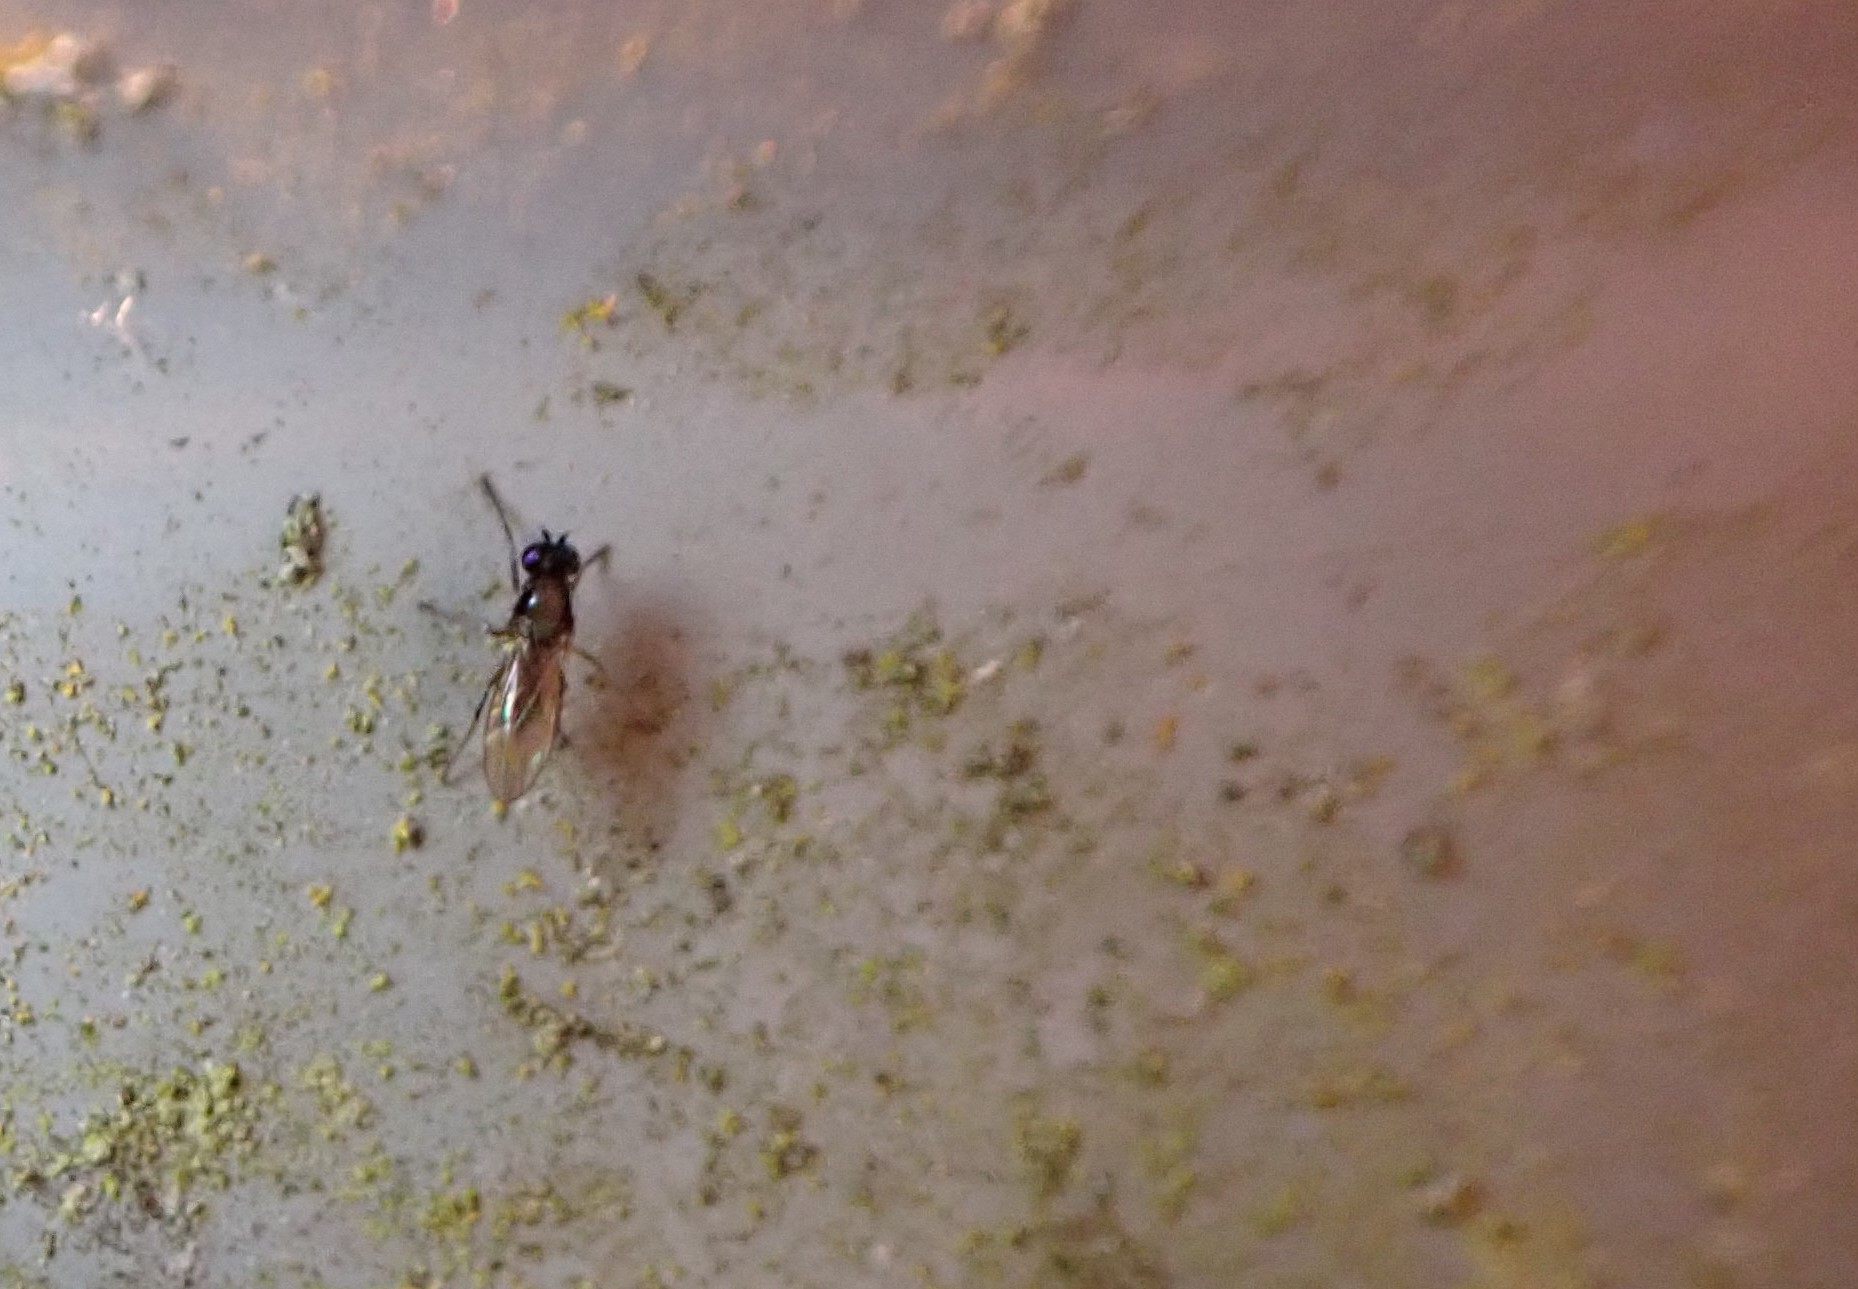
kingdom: Animalia
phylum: Arthropoda
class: Insecta
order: Diptera
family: Ephydridae
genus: Hydrellia
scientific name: Hydrellia tritici
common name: Shore fly
